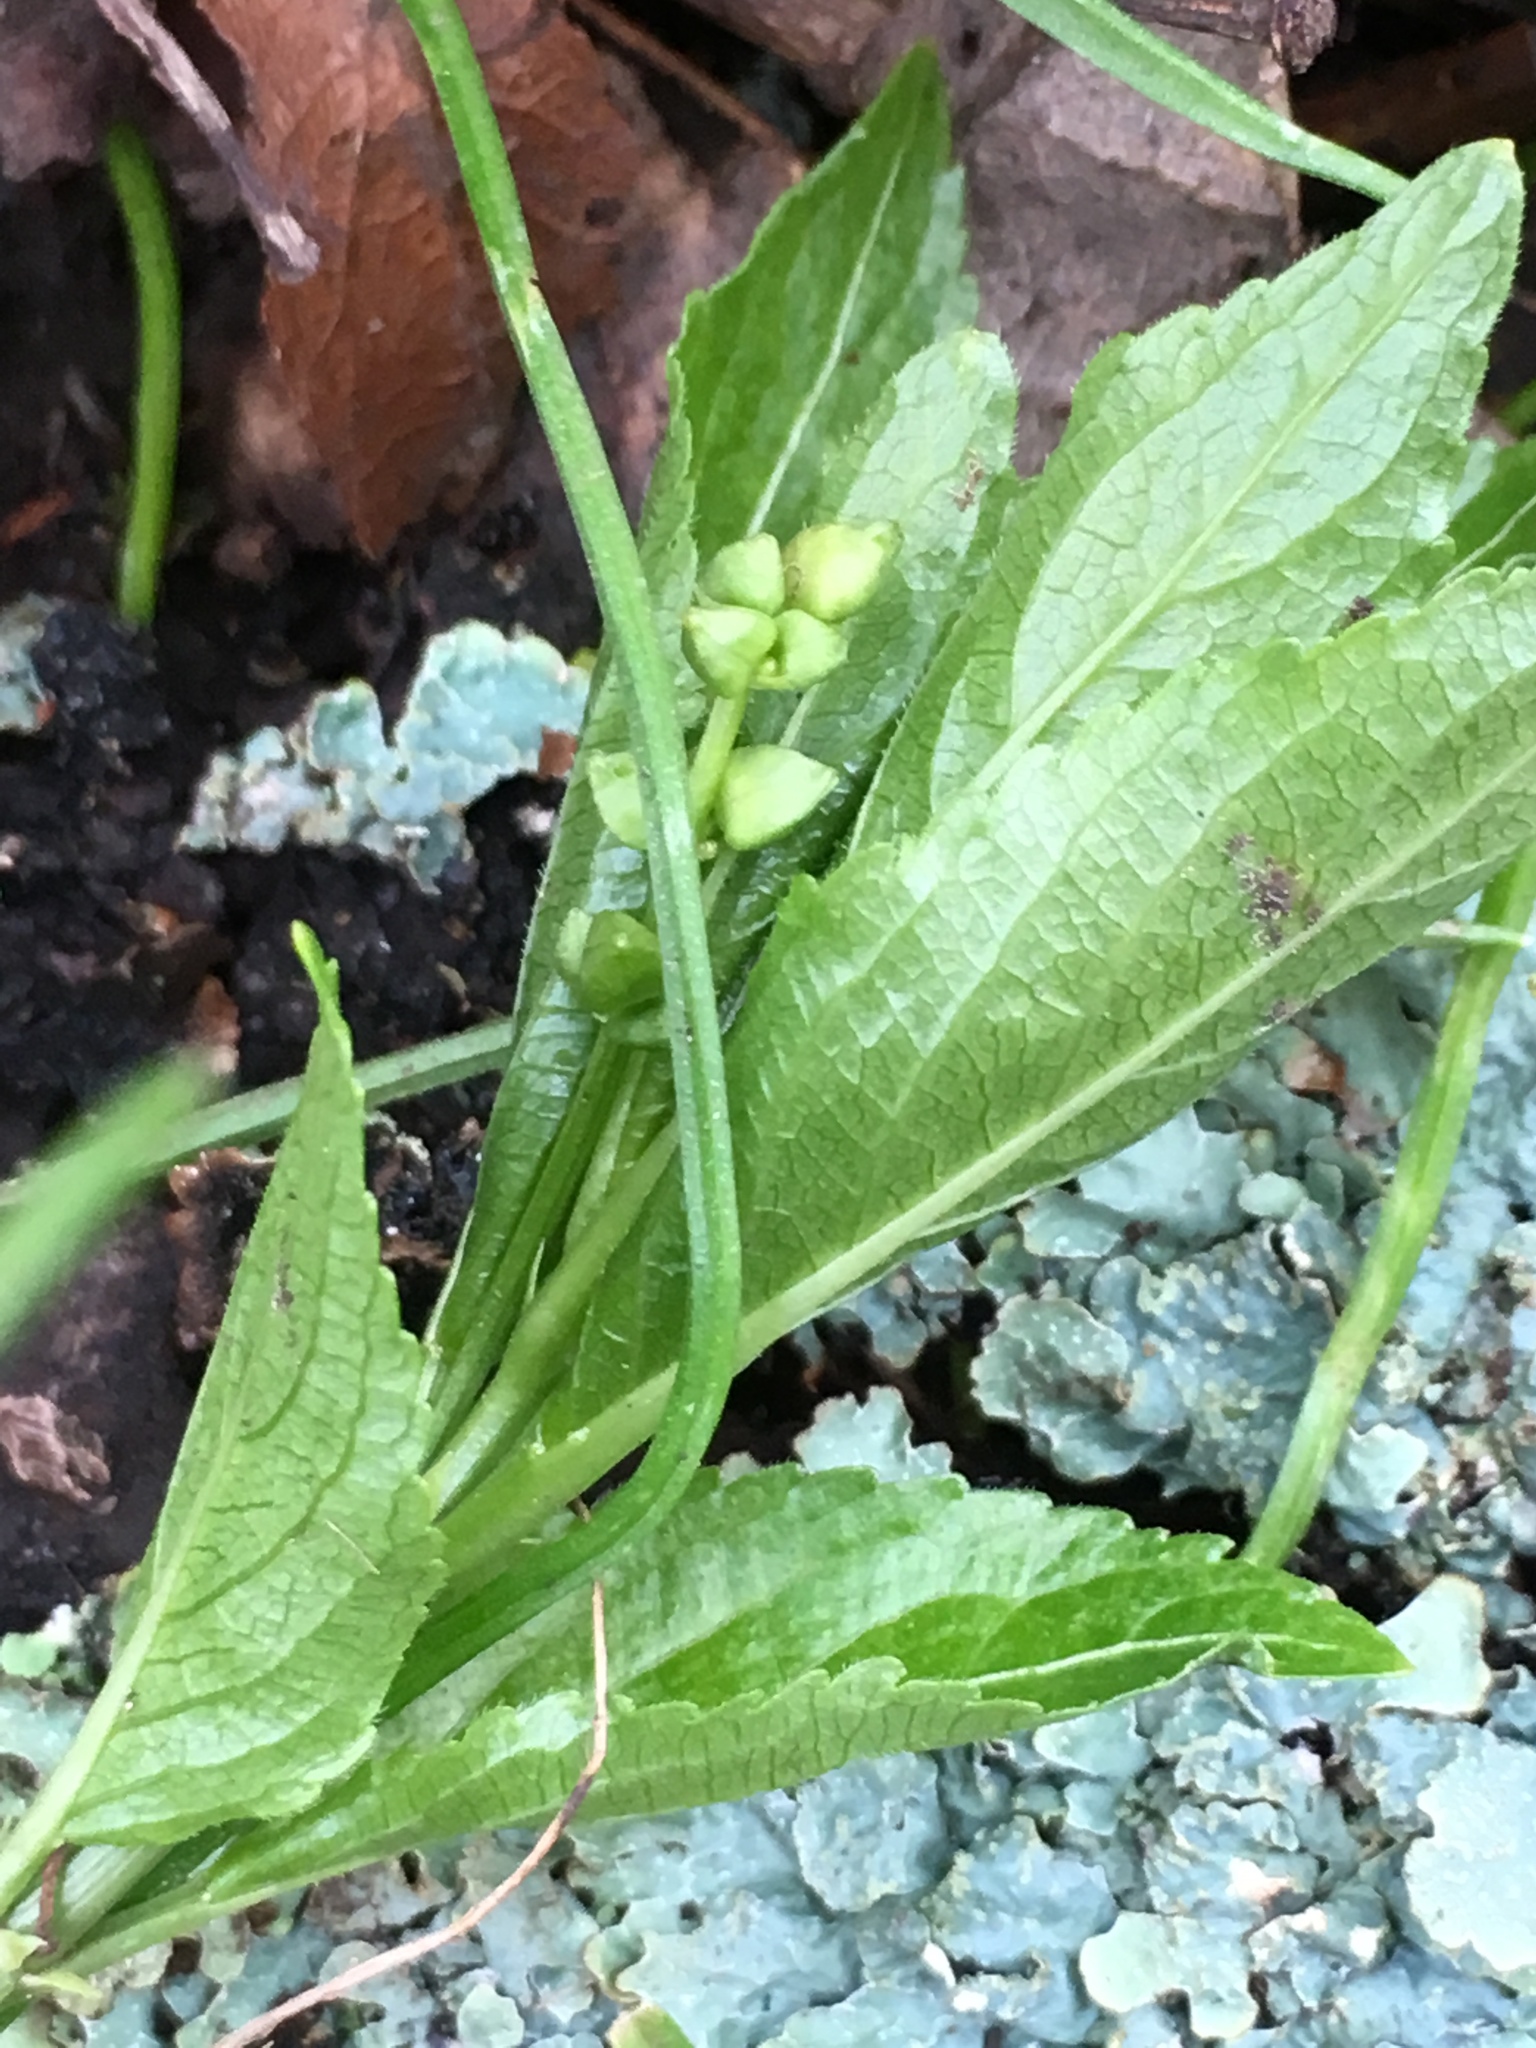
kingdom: Plantae
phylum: Tracheophyta
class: Magnoliopsida
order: Malpighiales
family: Euphorbiaceae
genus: Mercurialis
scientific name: Mercurialis perennis
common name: Dog mercury
